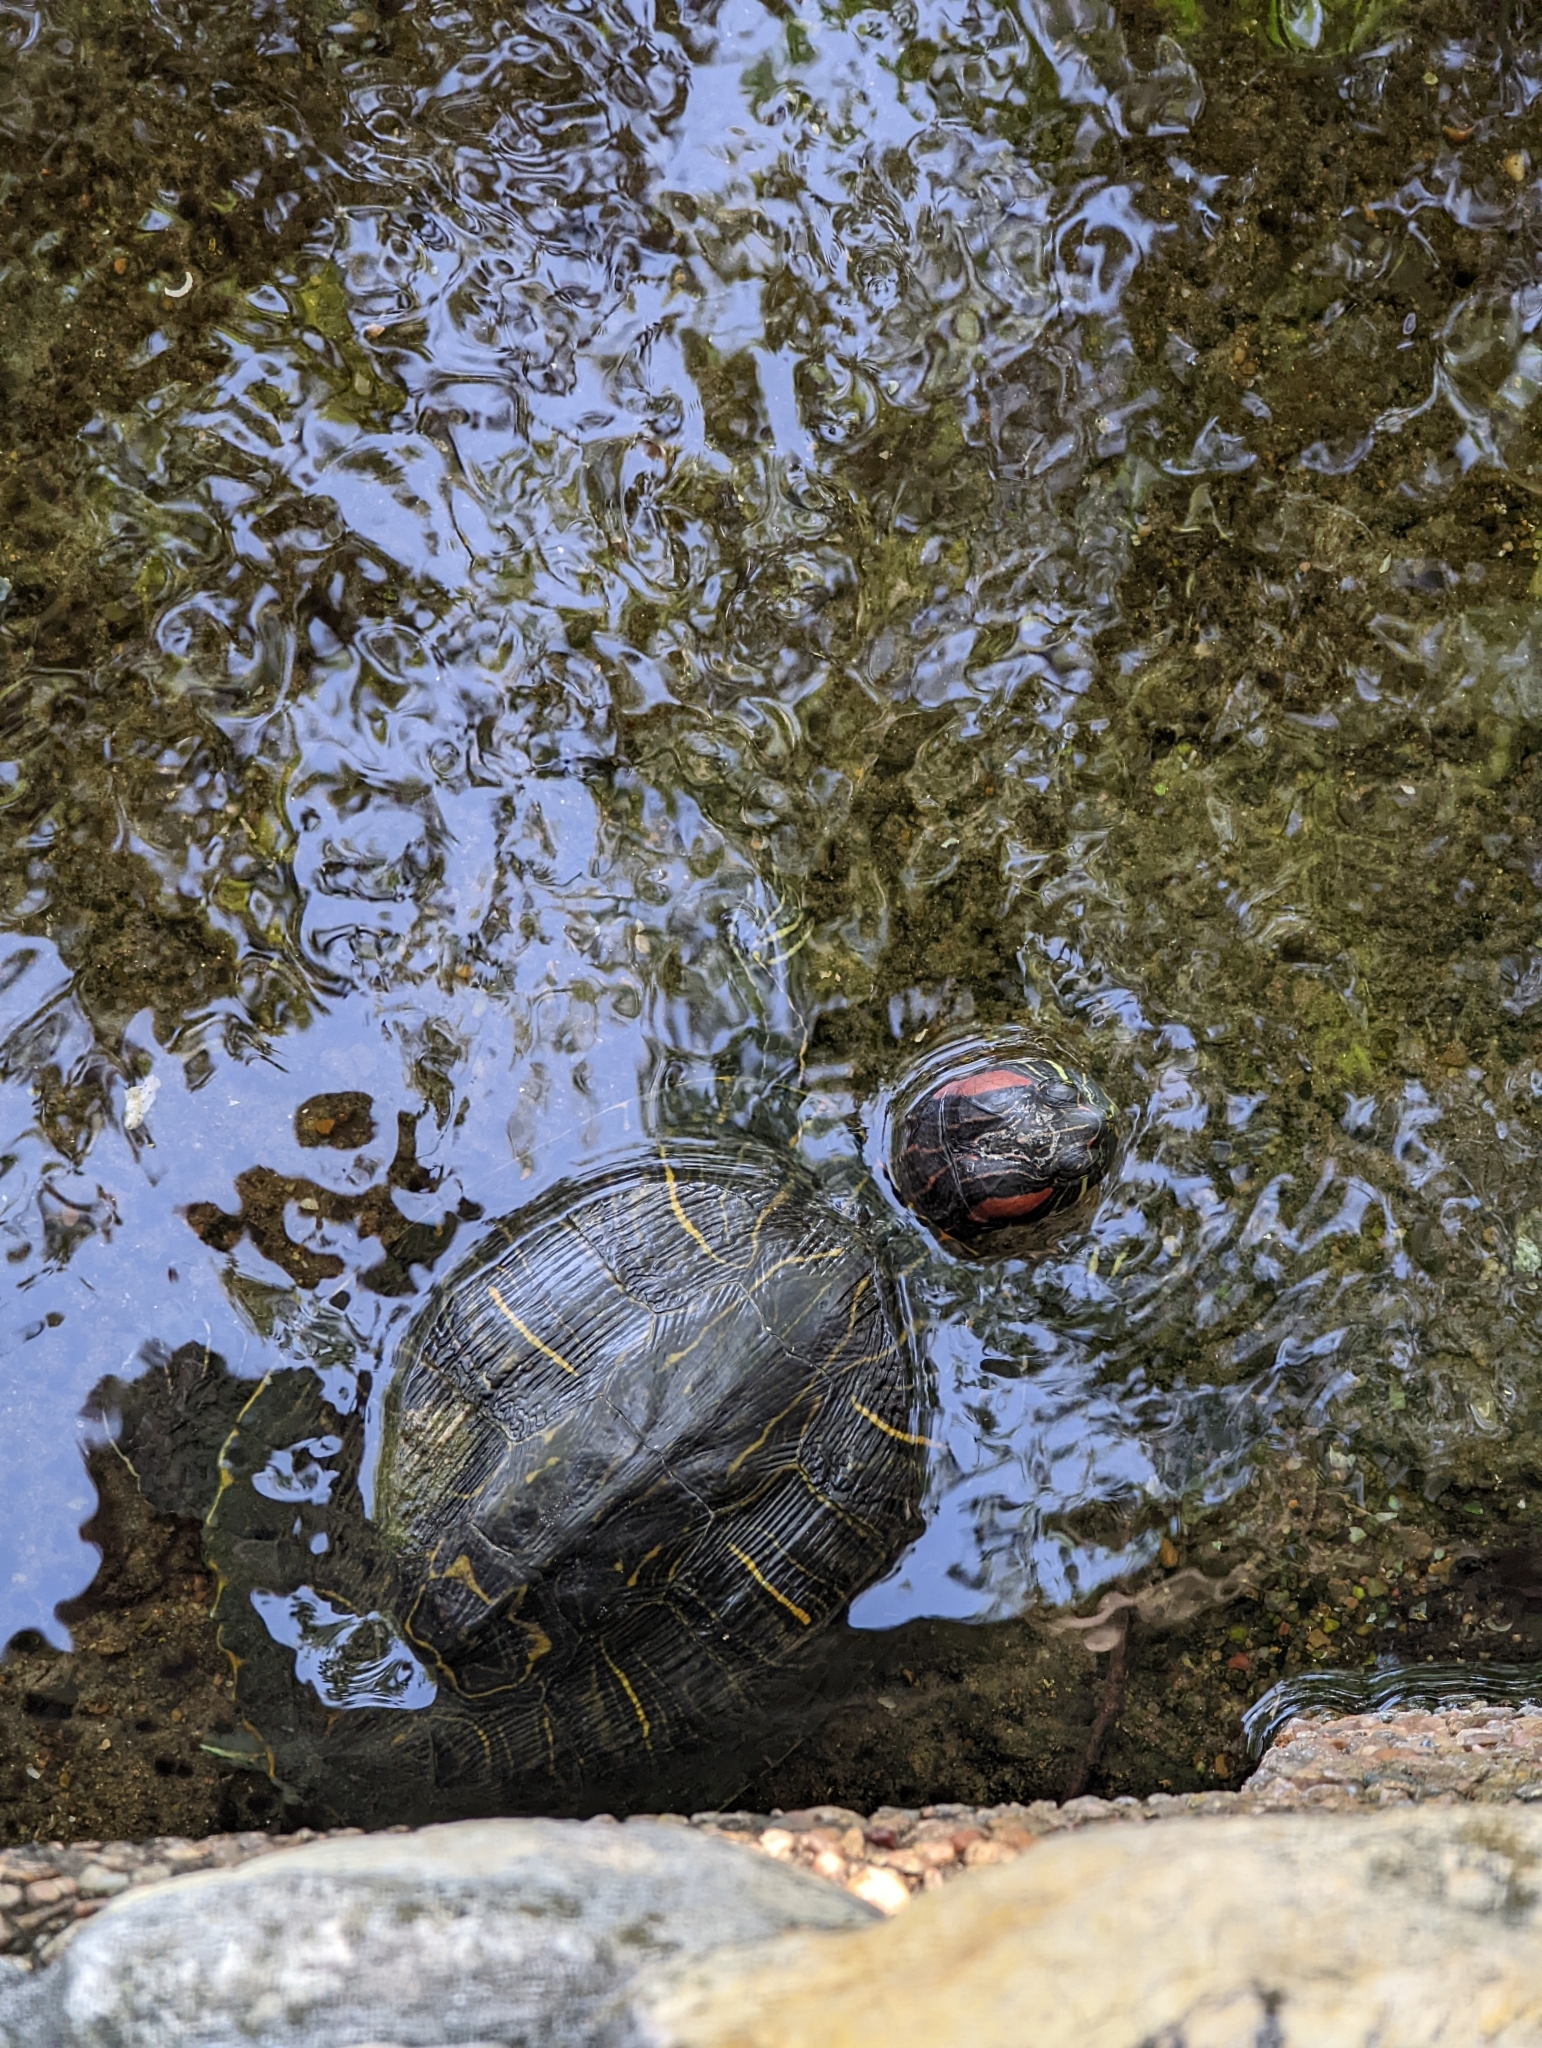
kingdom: Animalia
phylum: Chordata
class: Testudines
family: Emydidae
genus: Trachemys
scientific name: Trachemys scripta
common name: Slider
